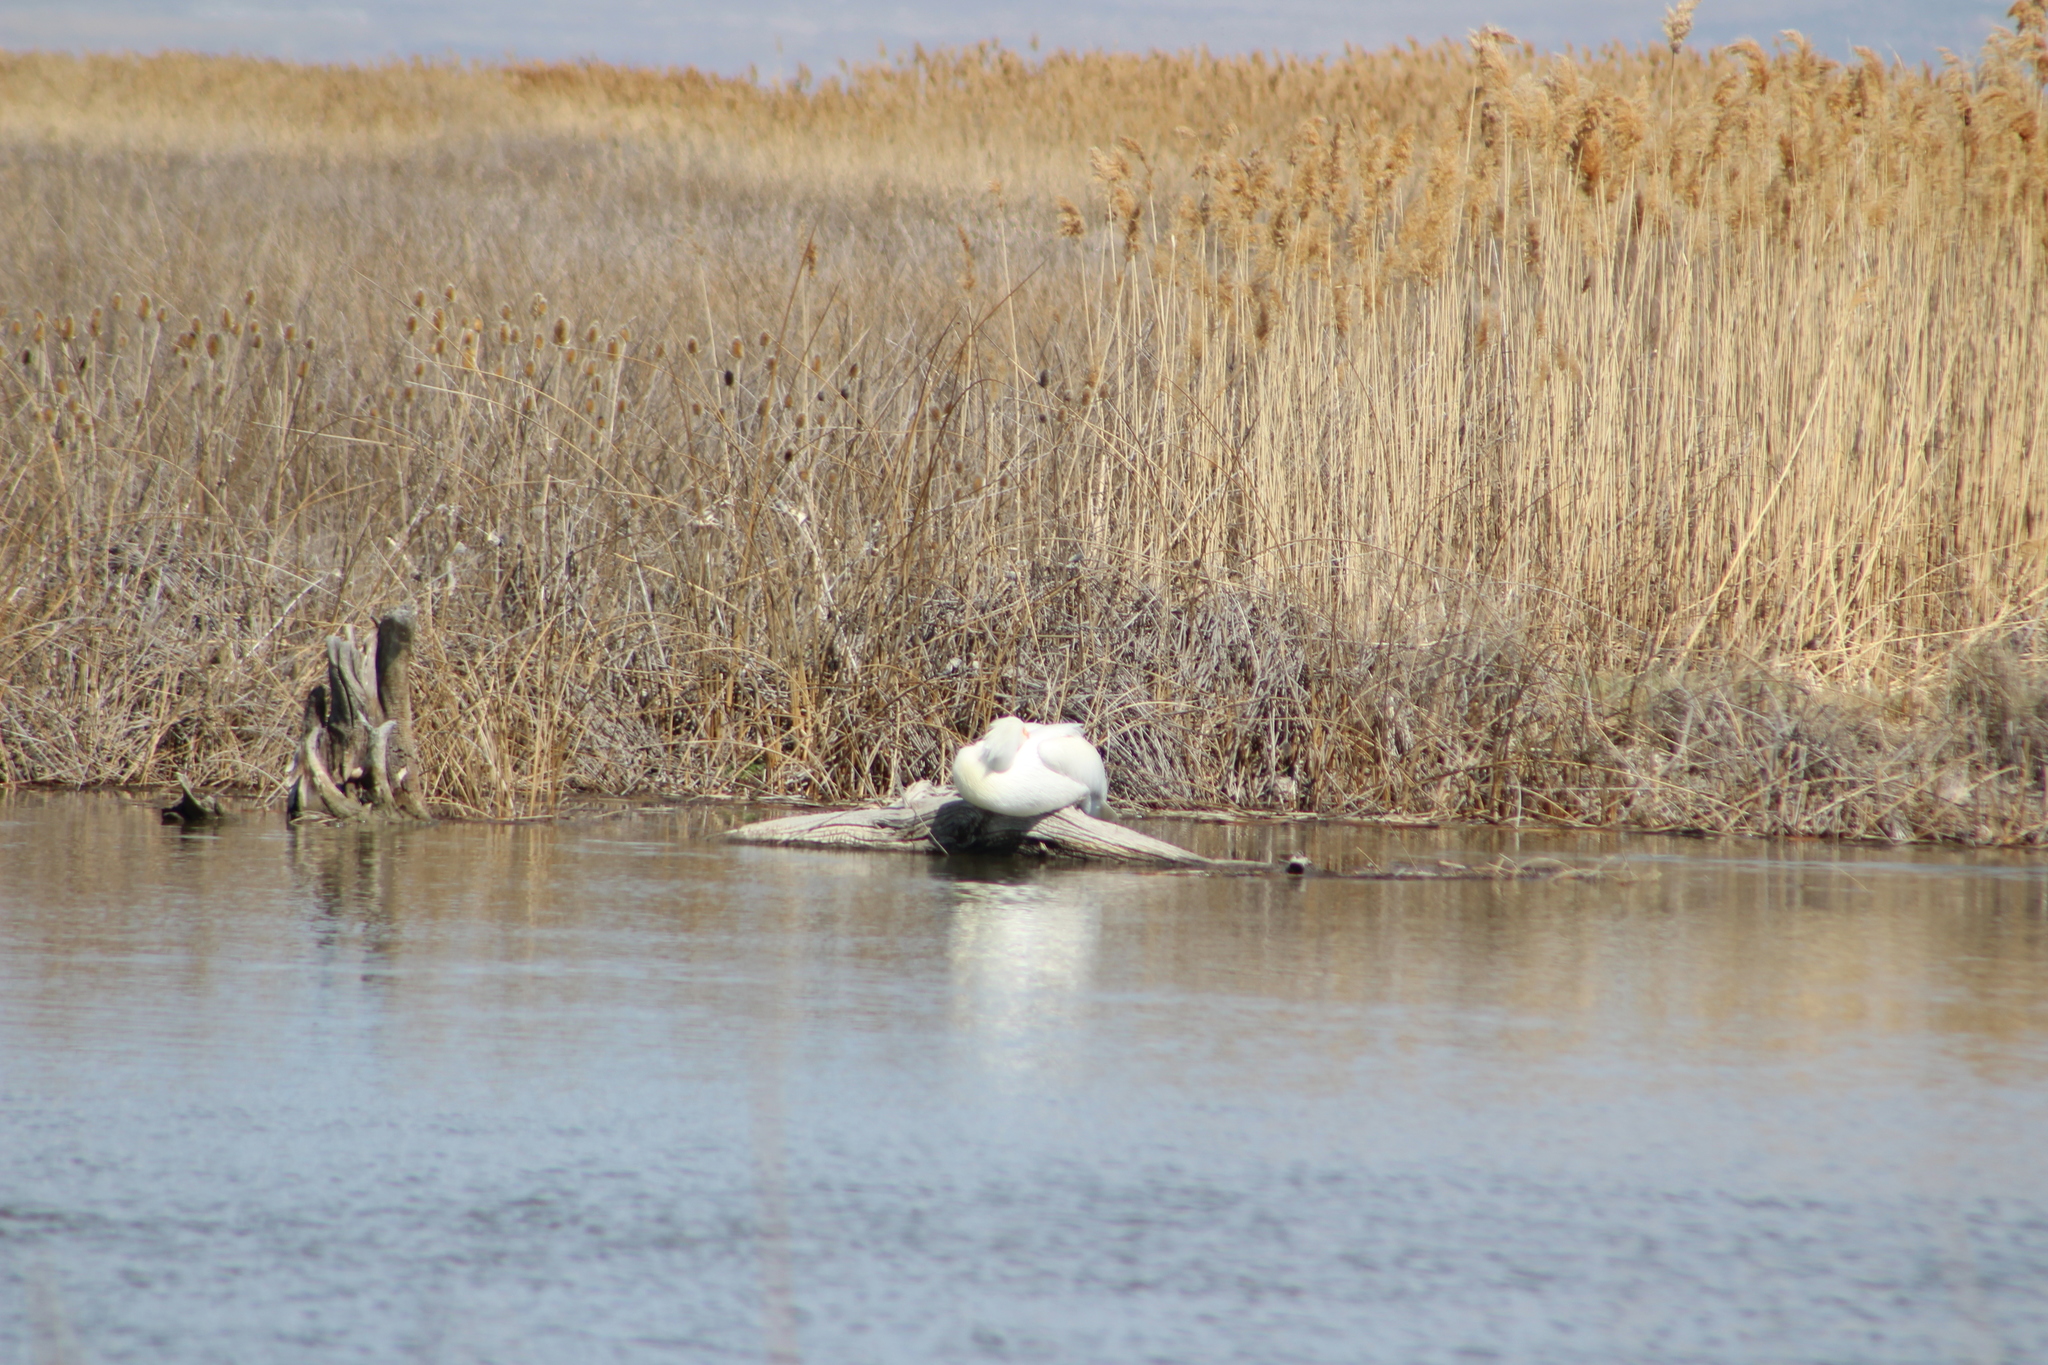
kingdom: Animalia
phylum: Chordata
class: Aves
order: Pelecaniformes
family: Pelecanidae
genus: Pelecanus
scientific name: Pelecanus erythrorhynchos
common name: American white pelican
